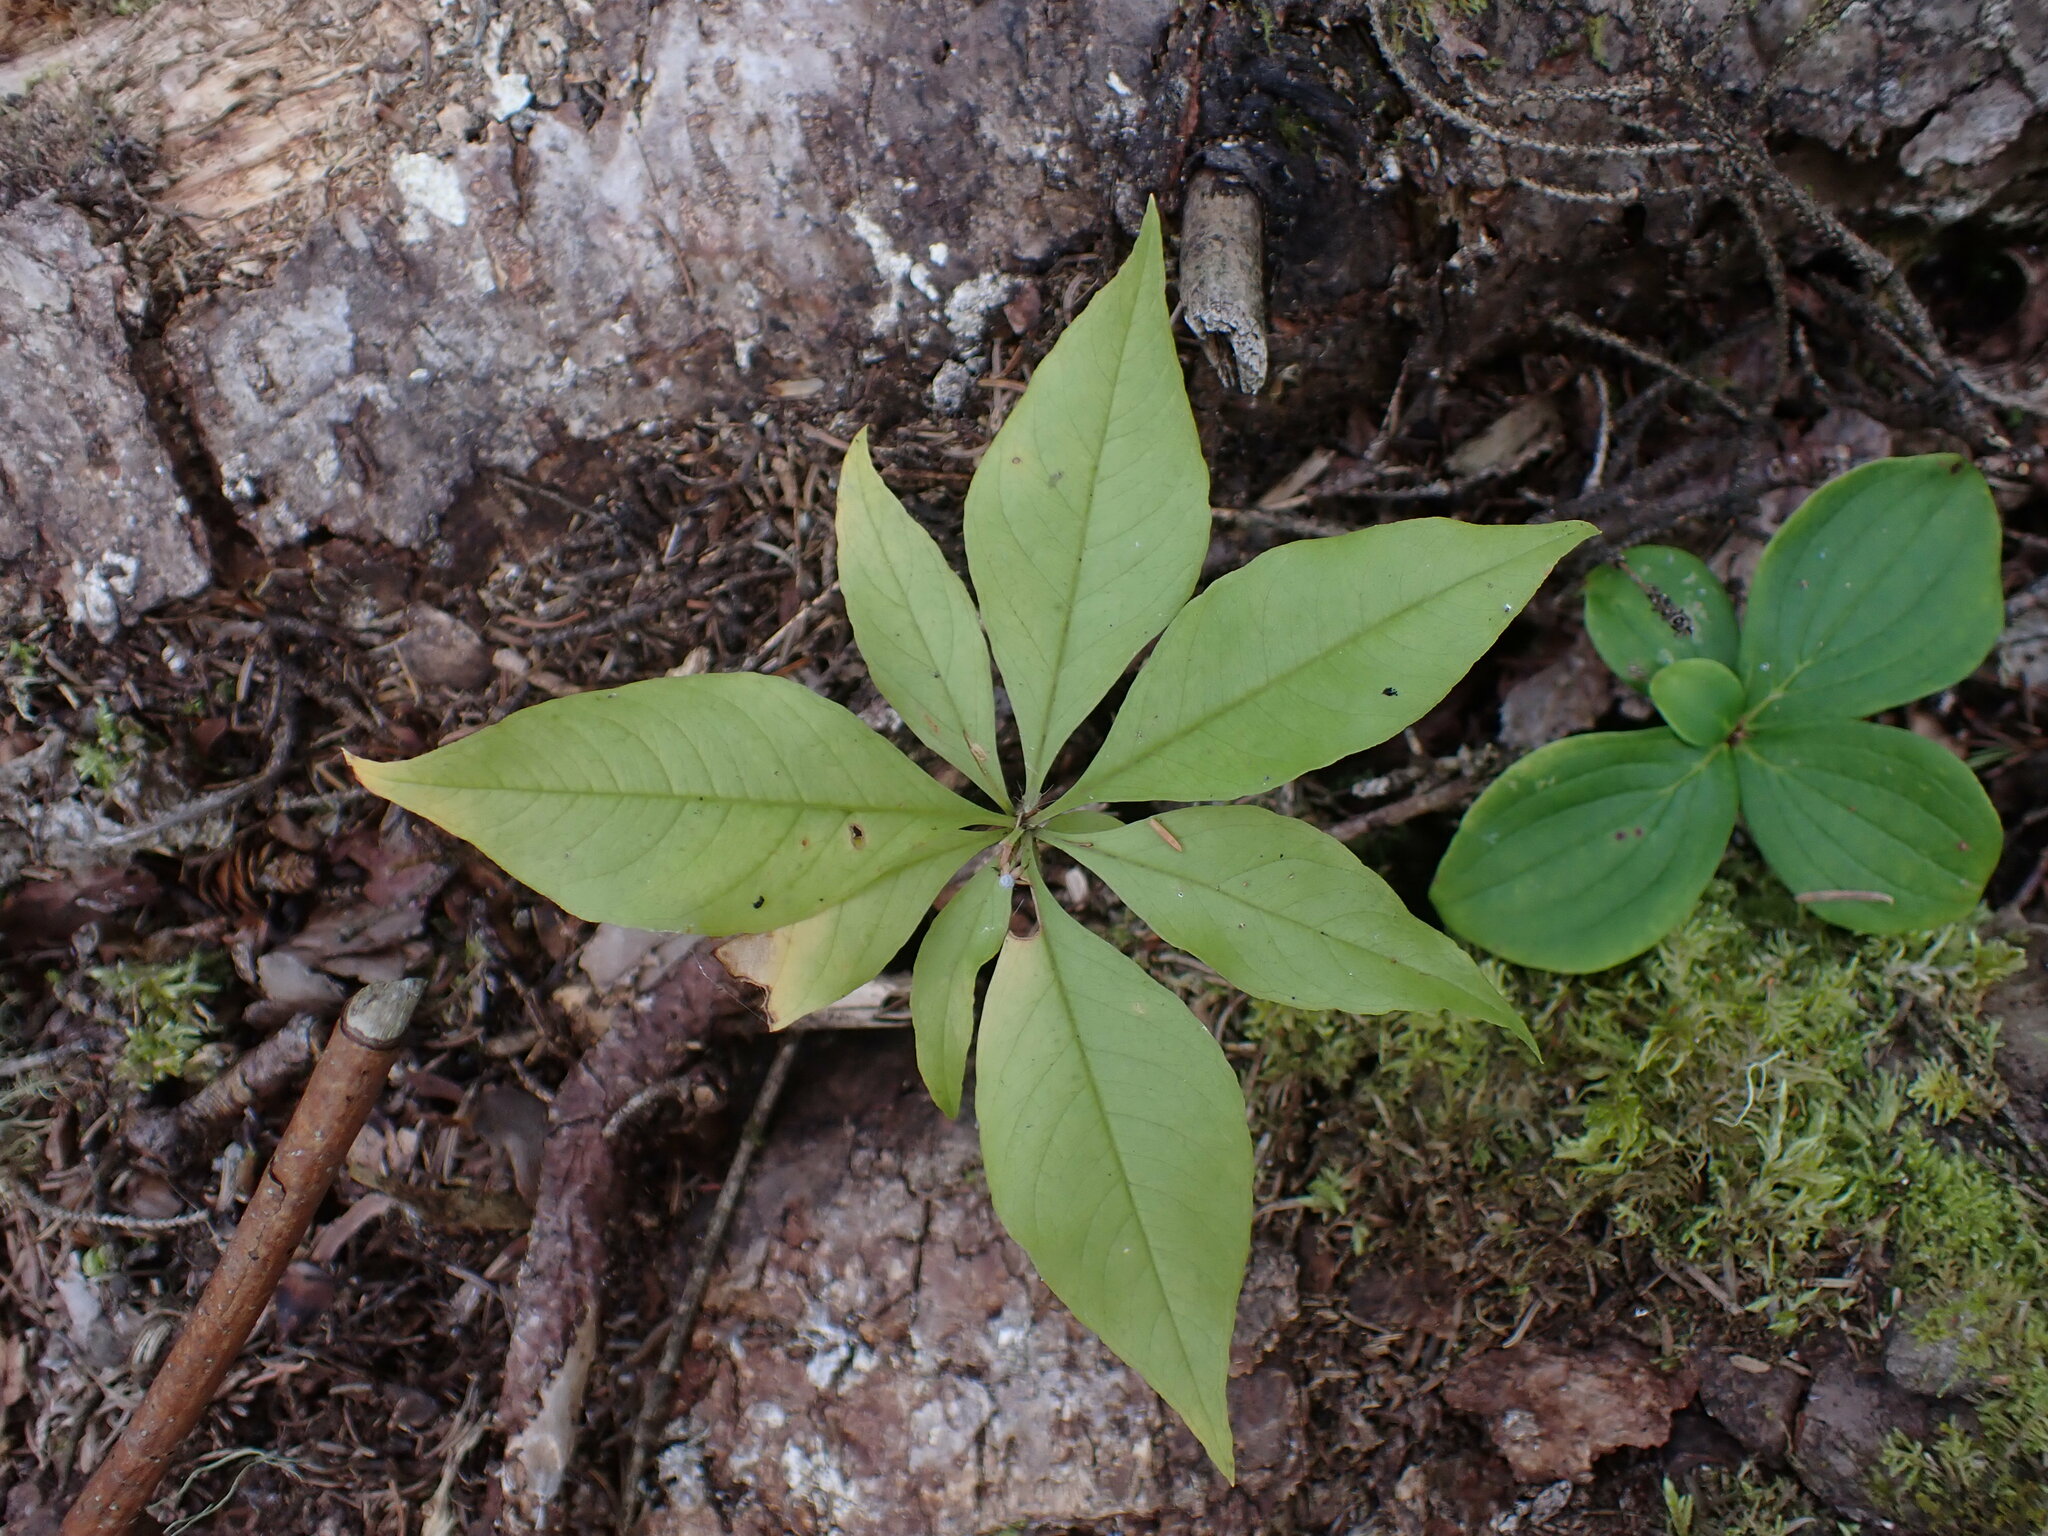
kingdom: Plantae
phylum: Tracheophyta
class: Magnoliopsida
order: Ericales
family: Primulaceae
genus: Lysimachia
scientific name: Lysimachia borealis
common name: American starflower
